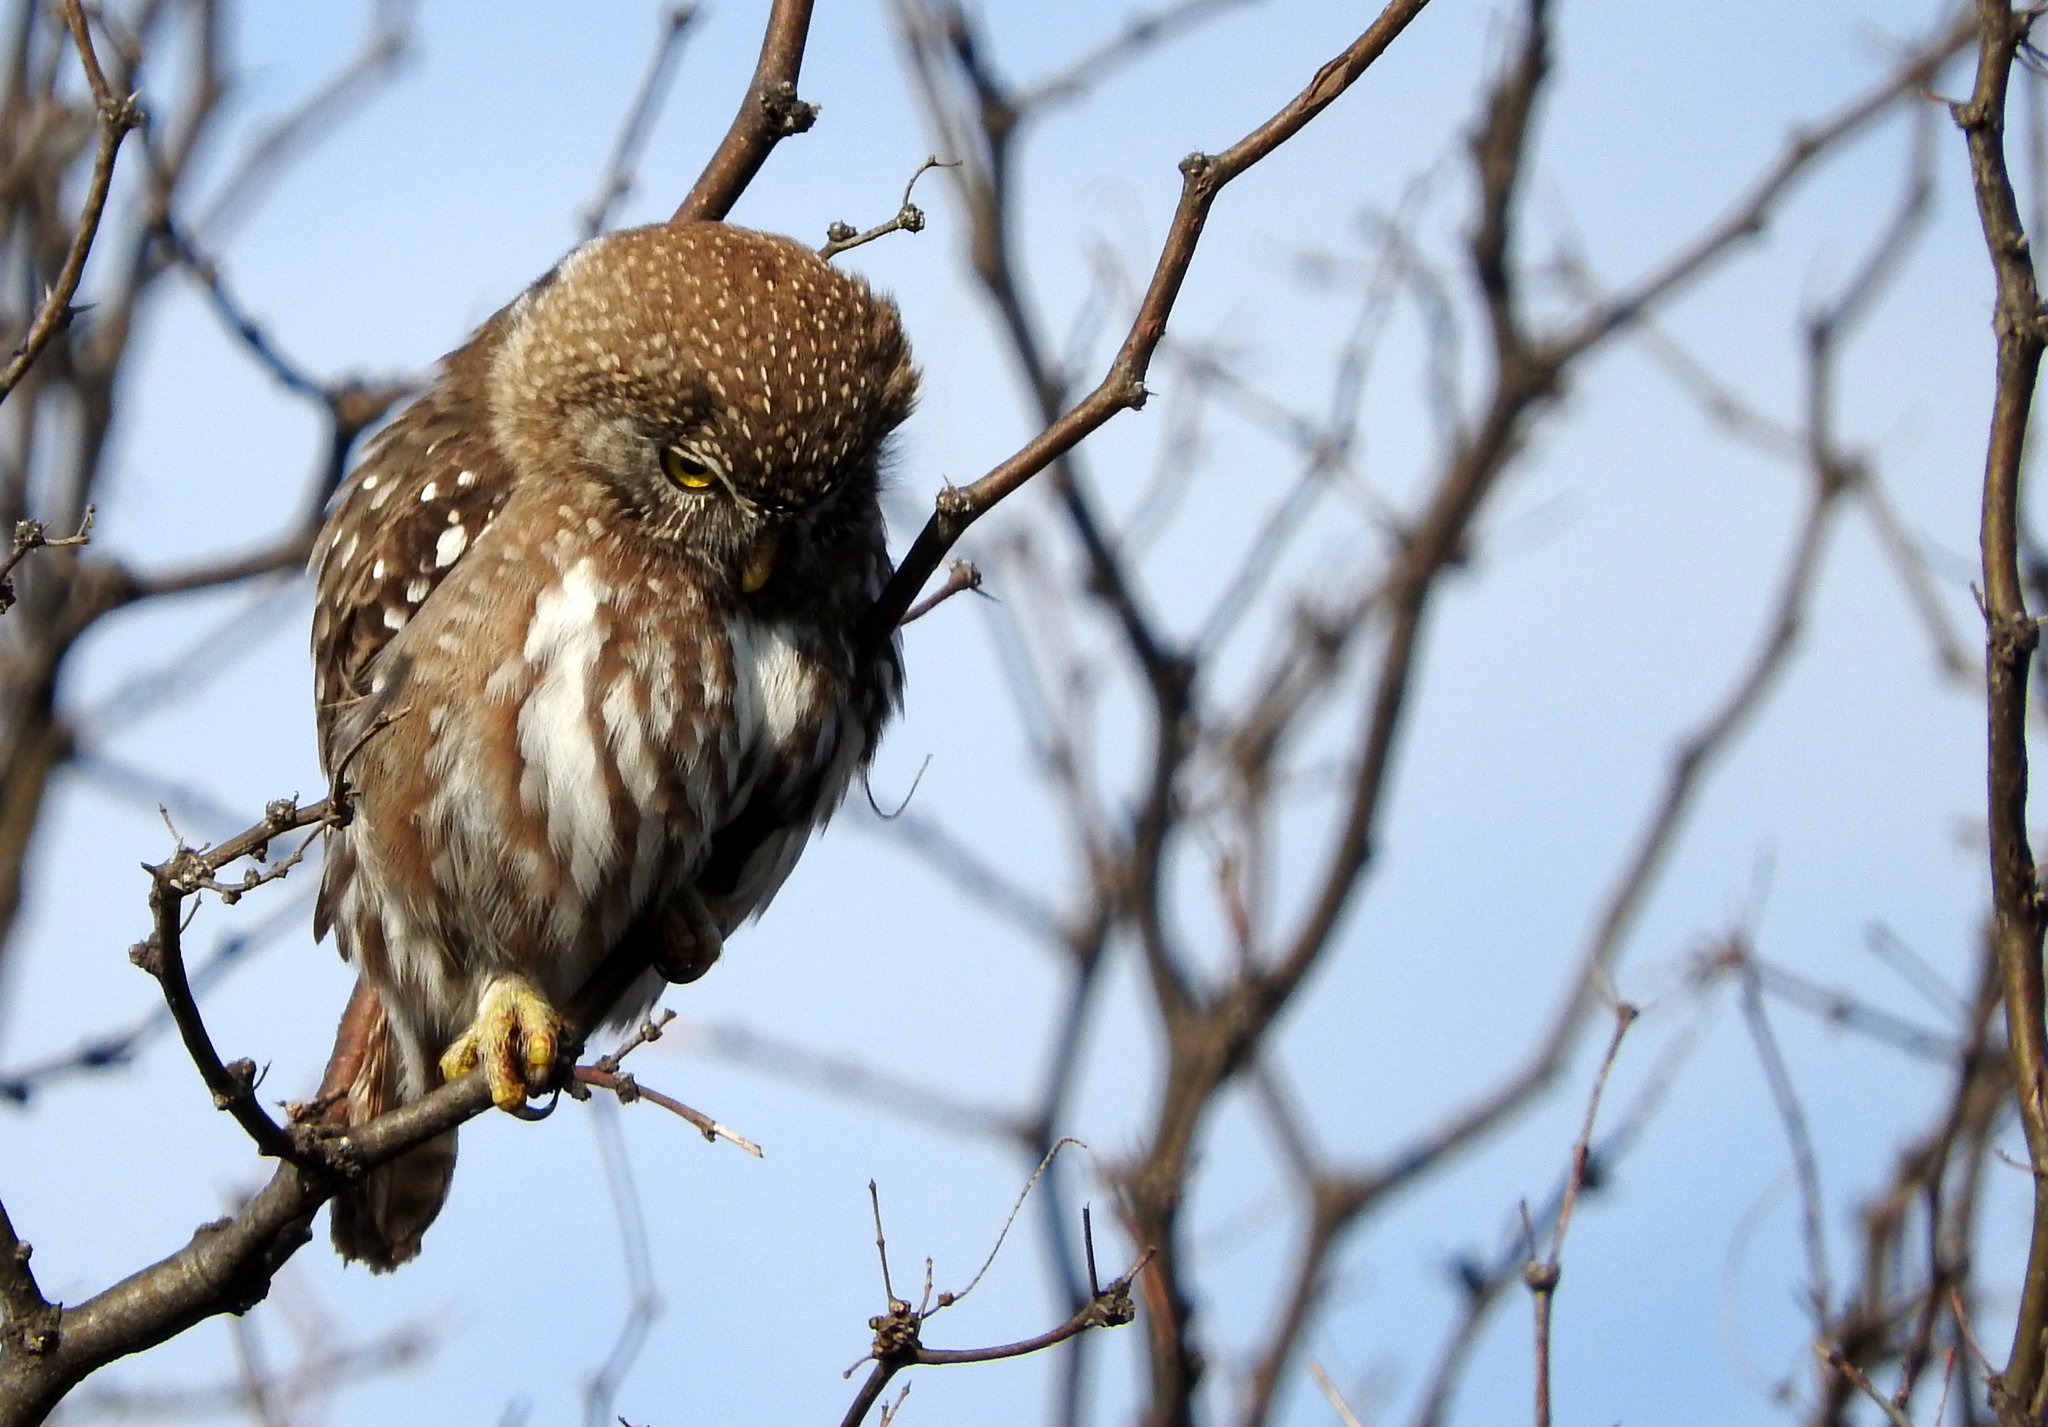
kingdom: Animalia
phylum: Chordata
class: Aves
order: Strigiformes
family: Strigidae
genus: Glaucidium
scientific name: Glaucidium brasilianum
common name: Ferruginous pygmy-owl
